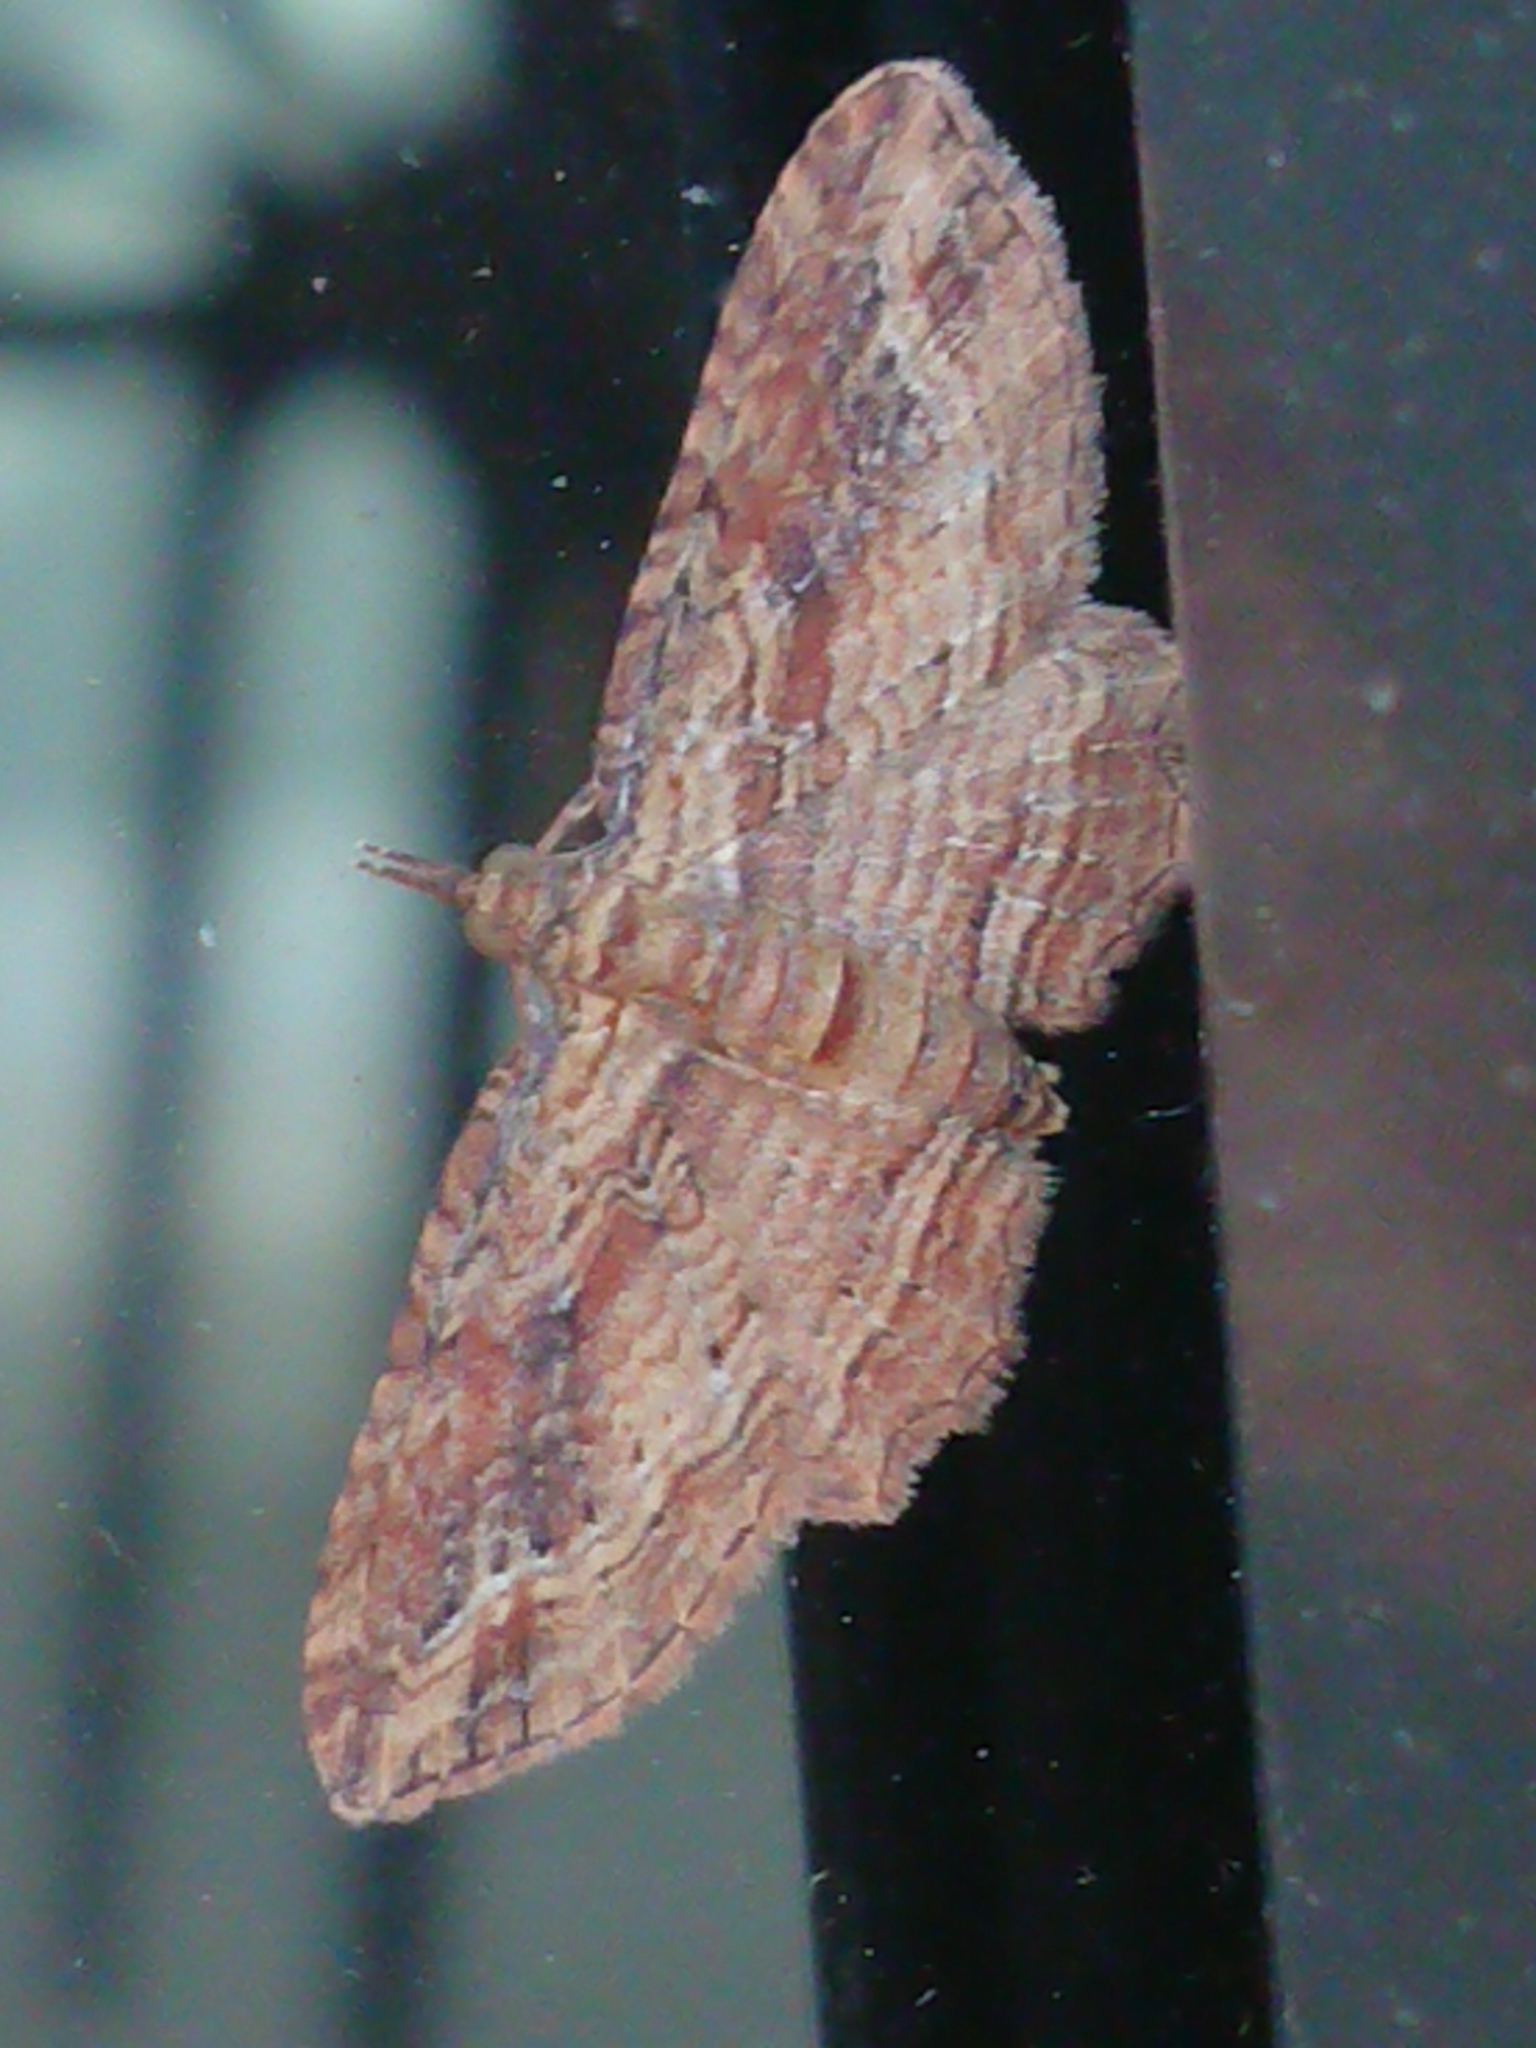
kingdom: Animalia
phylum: Arthropoda
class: Insecta
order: Lepidoptera
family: Geometridae
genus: Chloroclystis
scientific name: Chloroclystis filata
